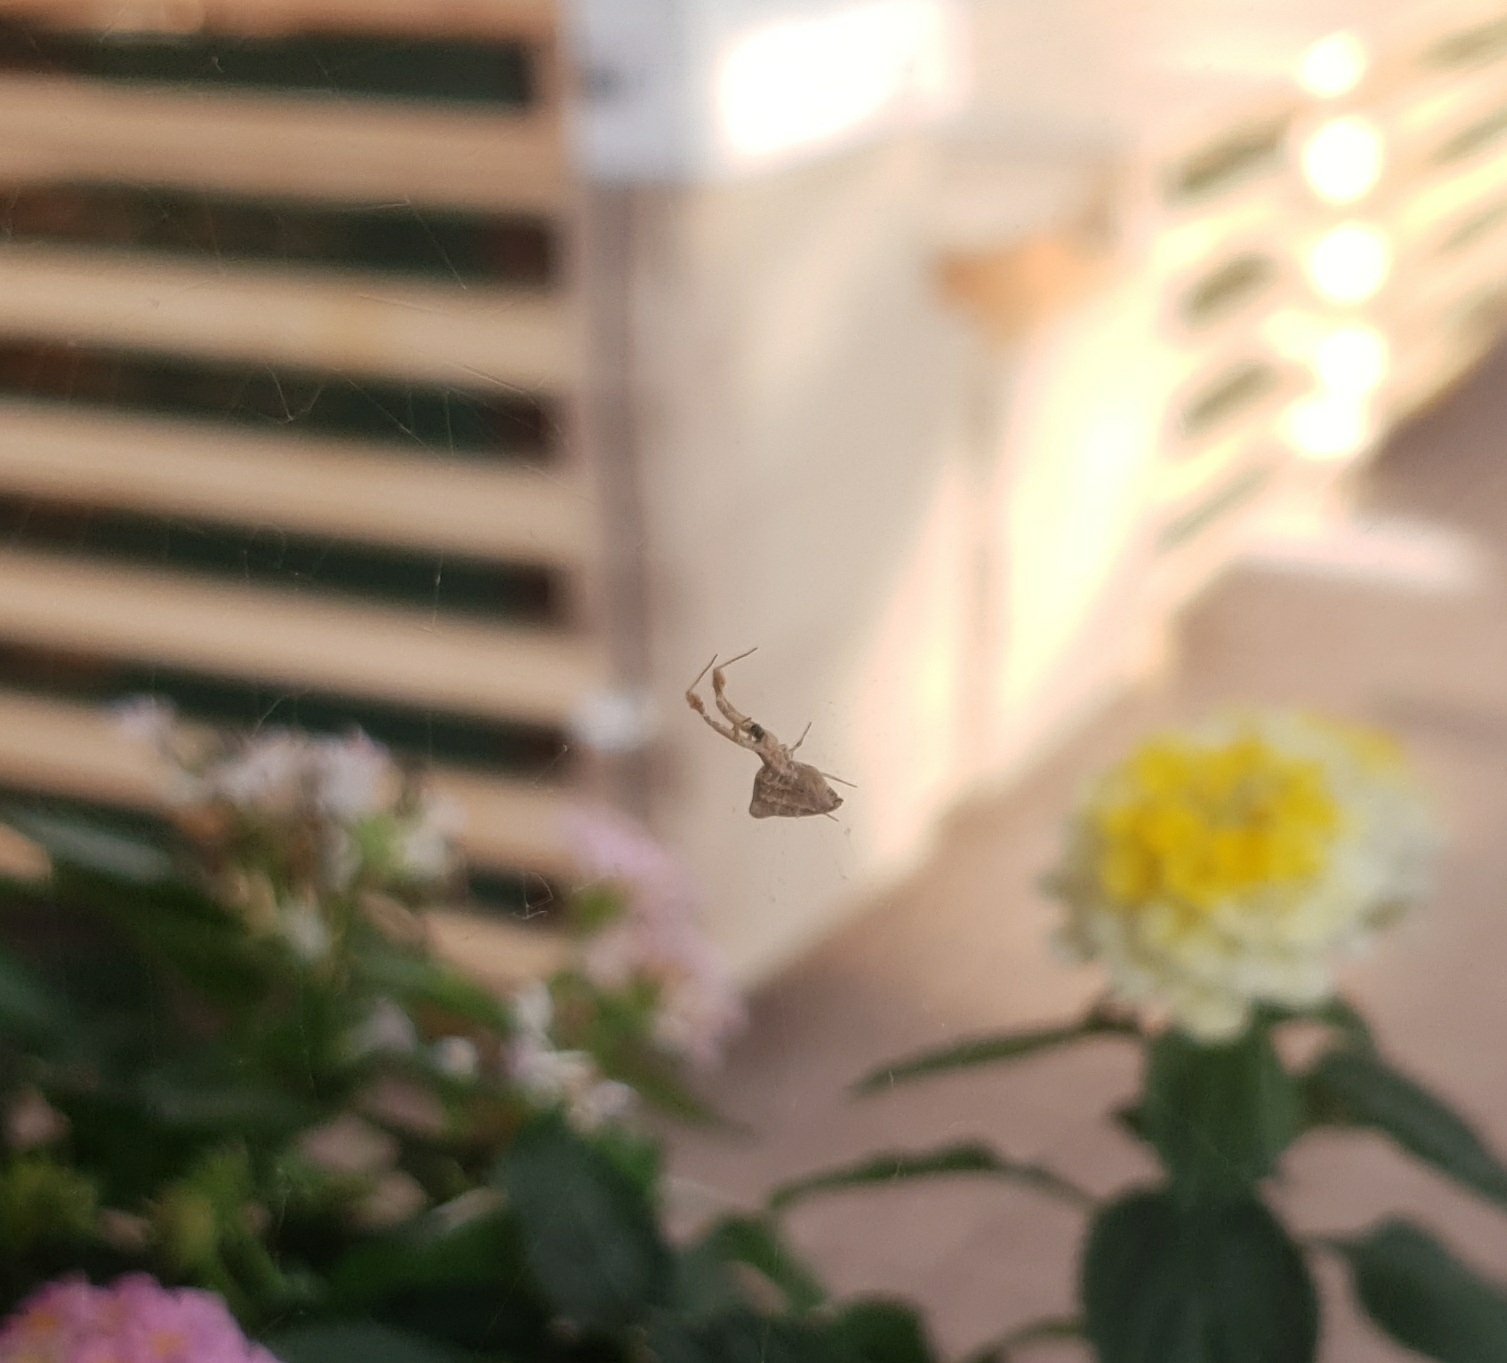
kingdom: Animalia
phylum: Arthropoda
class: Arachnida
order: Araneae
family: Uloboridae
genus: Uloborus
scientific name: Uloborus plumipes
